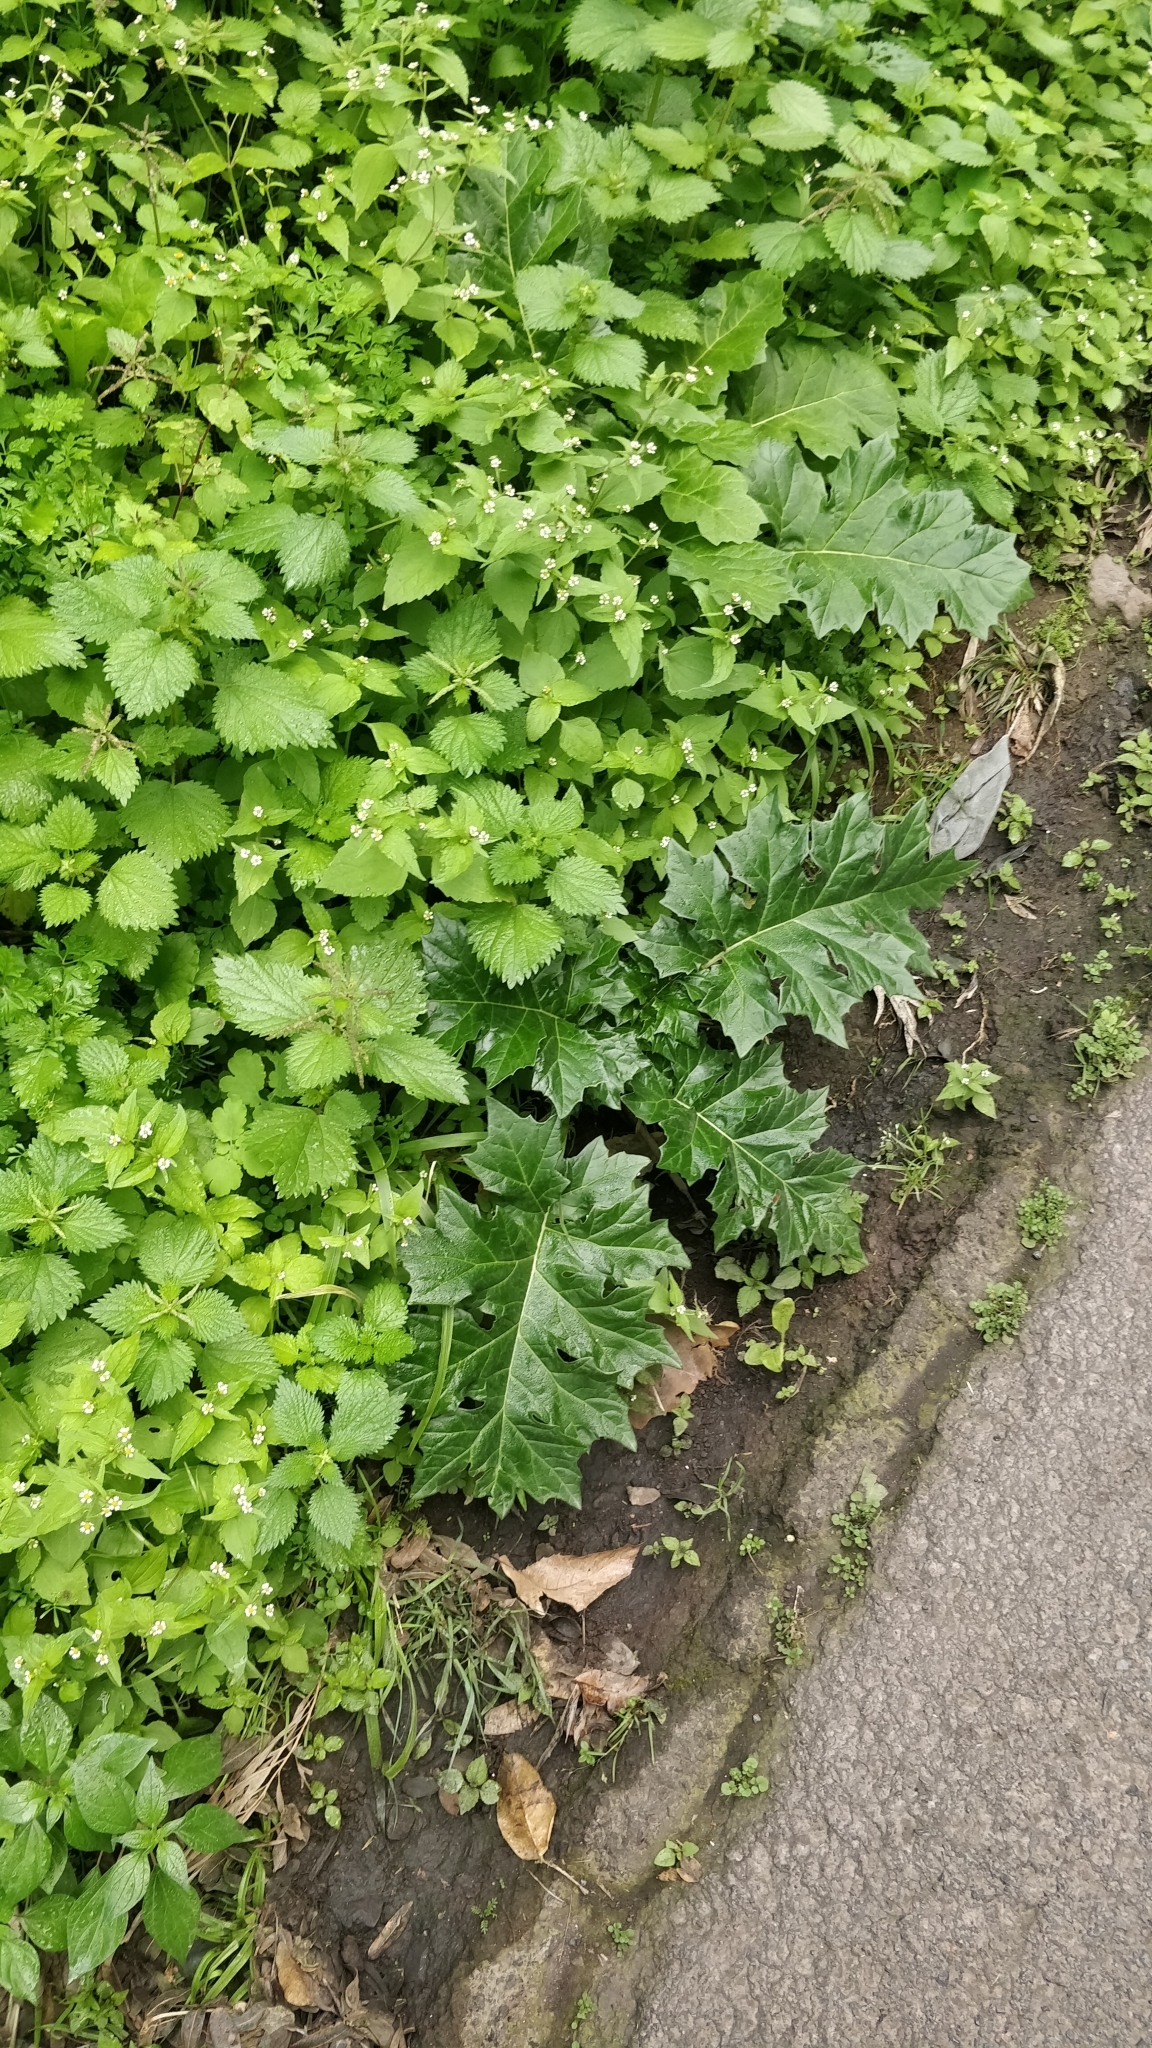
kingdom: Plantae
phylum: Tracheophyta
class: Magnoliopsida
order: Lamiales
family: Acanthaceae
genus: Acanthus
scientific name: Acanthus mollis
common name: Bear's-breech
